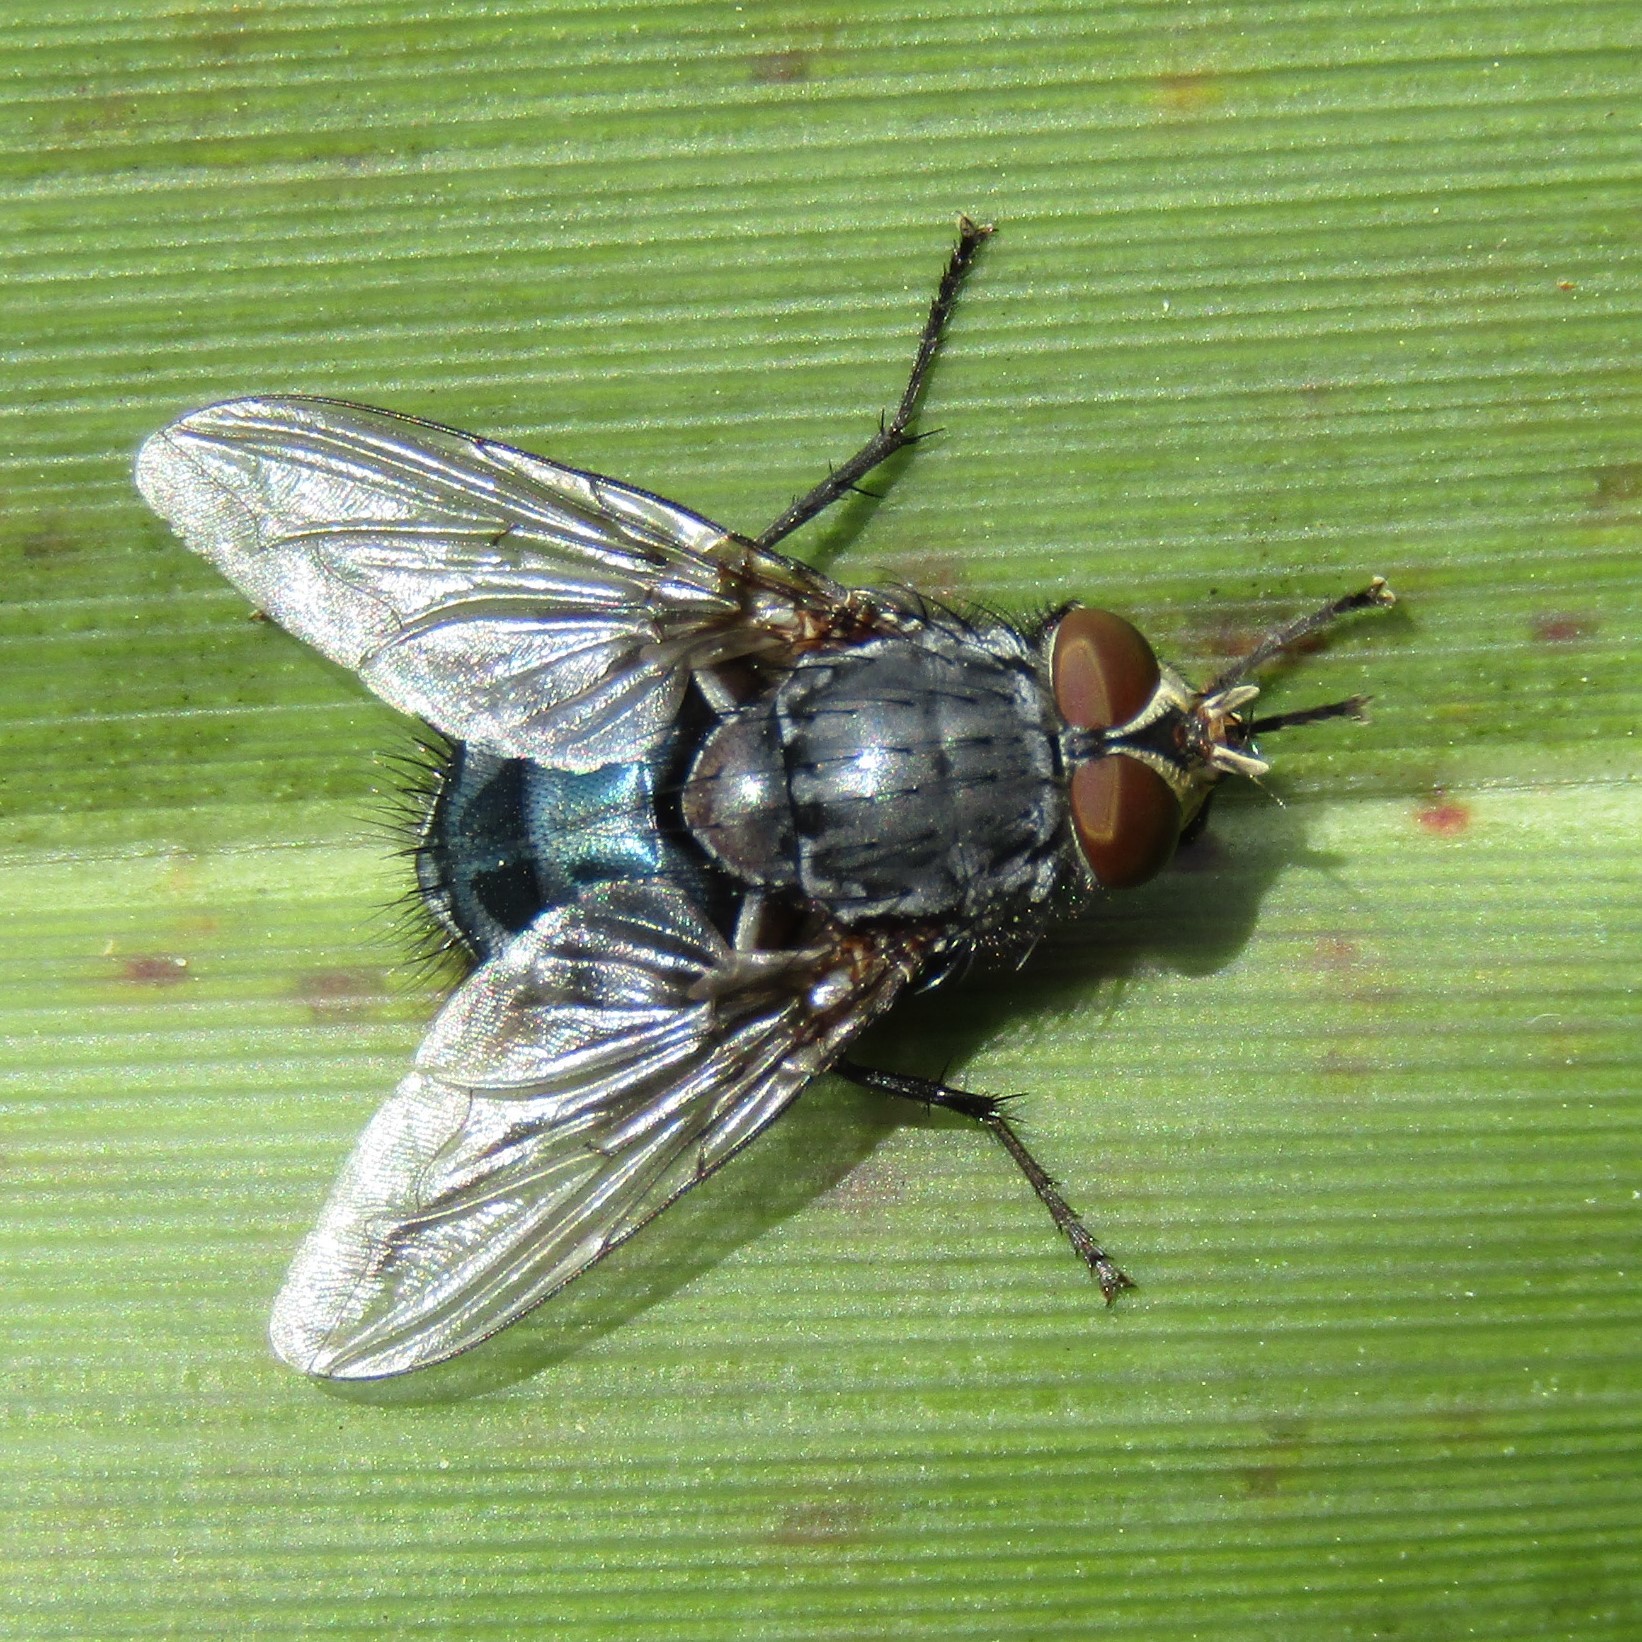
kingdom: Animalia
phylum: Arthropoda
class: Insecta
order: Diptera
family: Calliphoridae
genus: Calliphora
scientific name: Calliphora vicina
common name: Common blow flie
